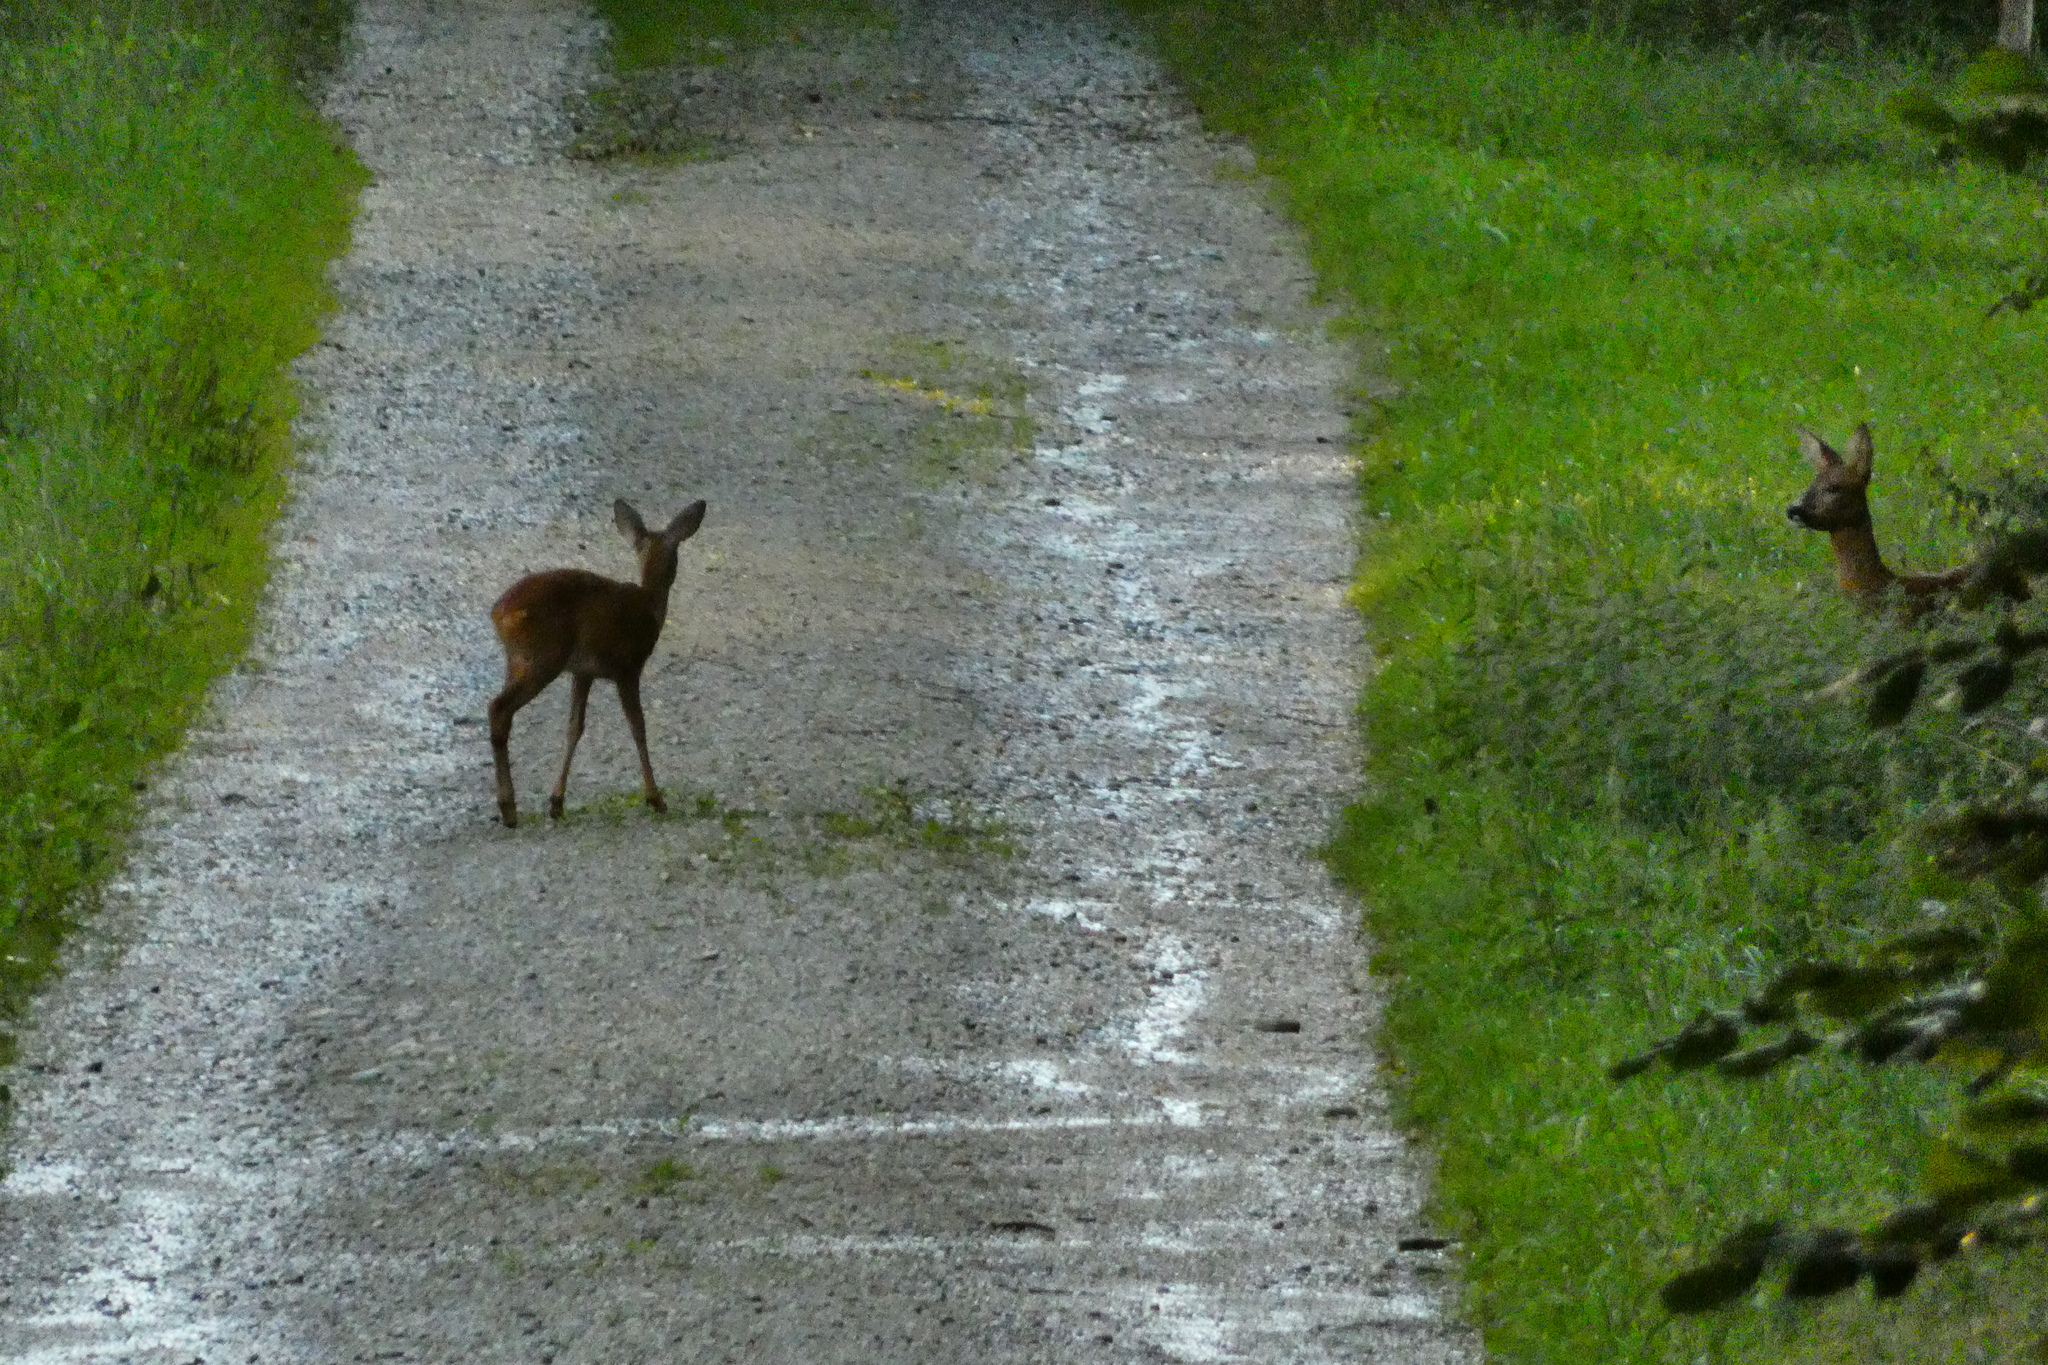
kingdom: Animalia
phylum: Chordata
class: Mammalia
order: Artiodactyla
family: Cervidae
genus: Capreolus
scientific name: Capreolus capreolus
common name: Western roe deer
